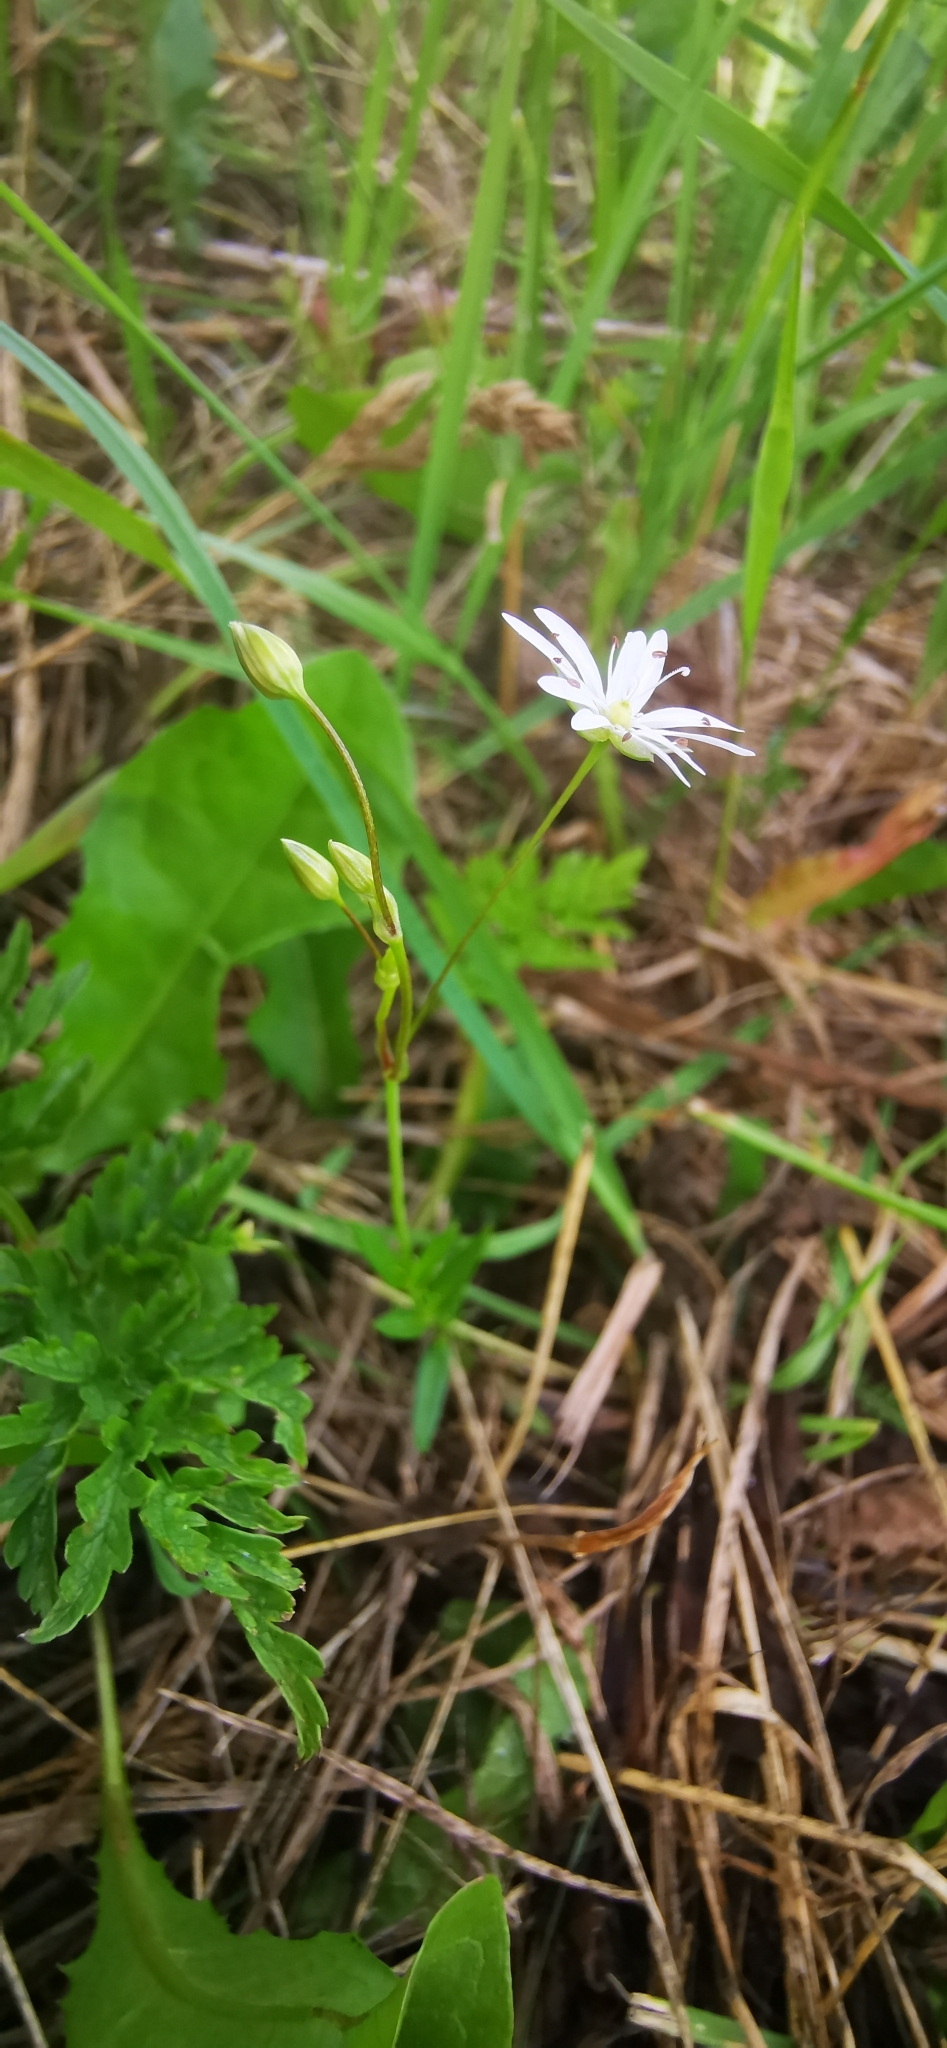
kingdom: Plantae
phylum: Tracheophyta
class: Magnoliopsida
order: Caryophyllales
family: Caryophyllaceae
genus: Stellaria
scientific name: Stellaria graminea
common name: Grass-like starwort
